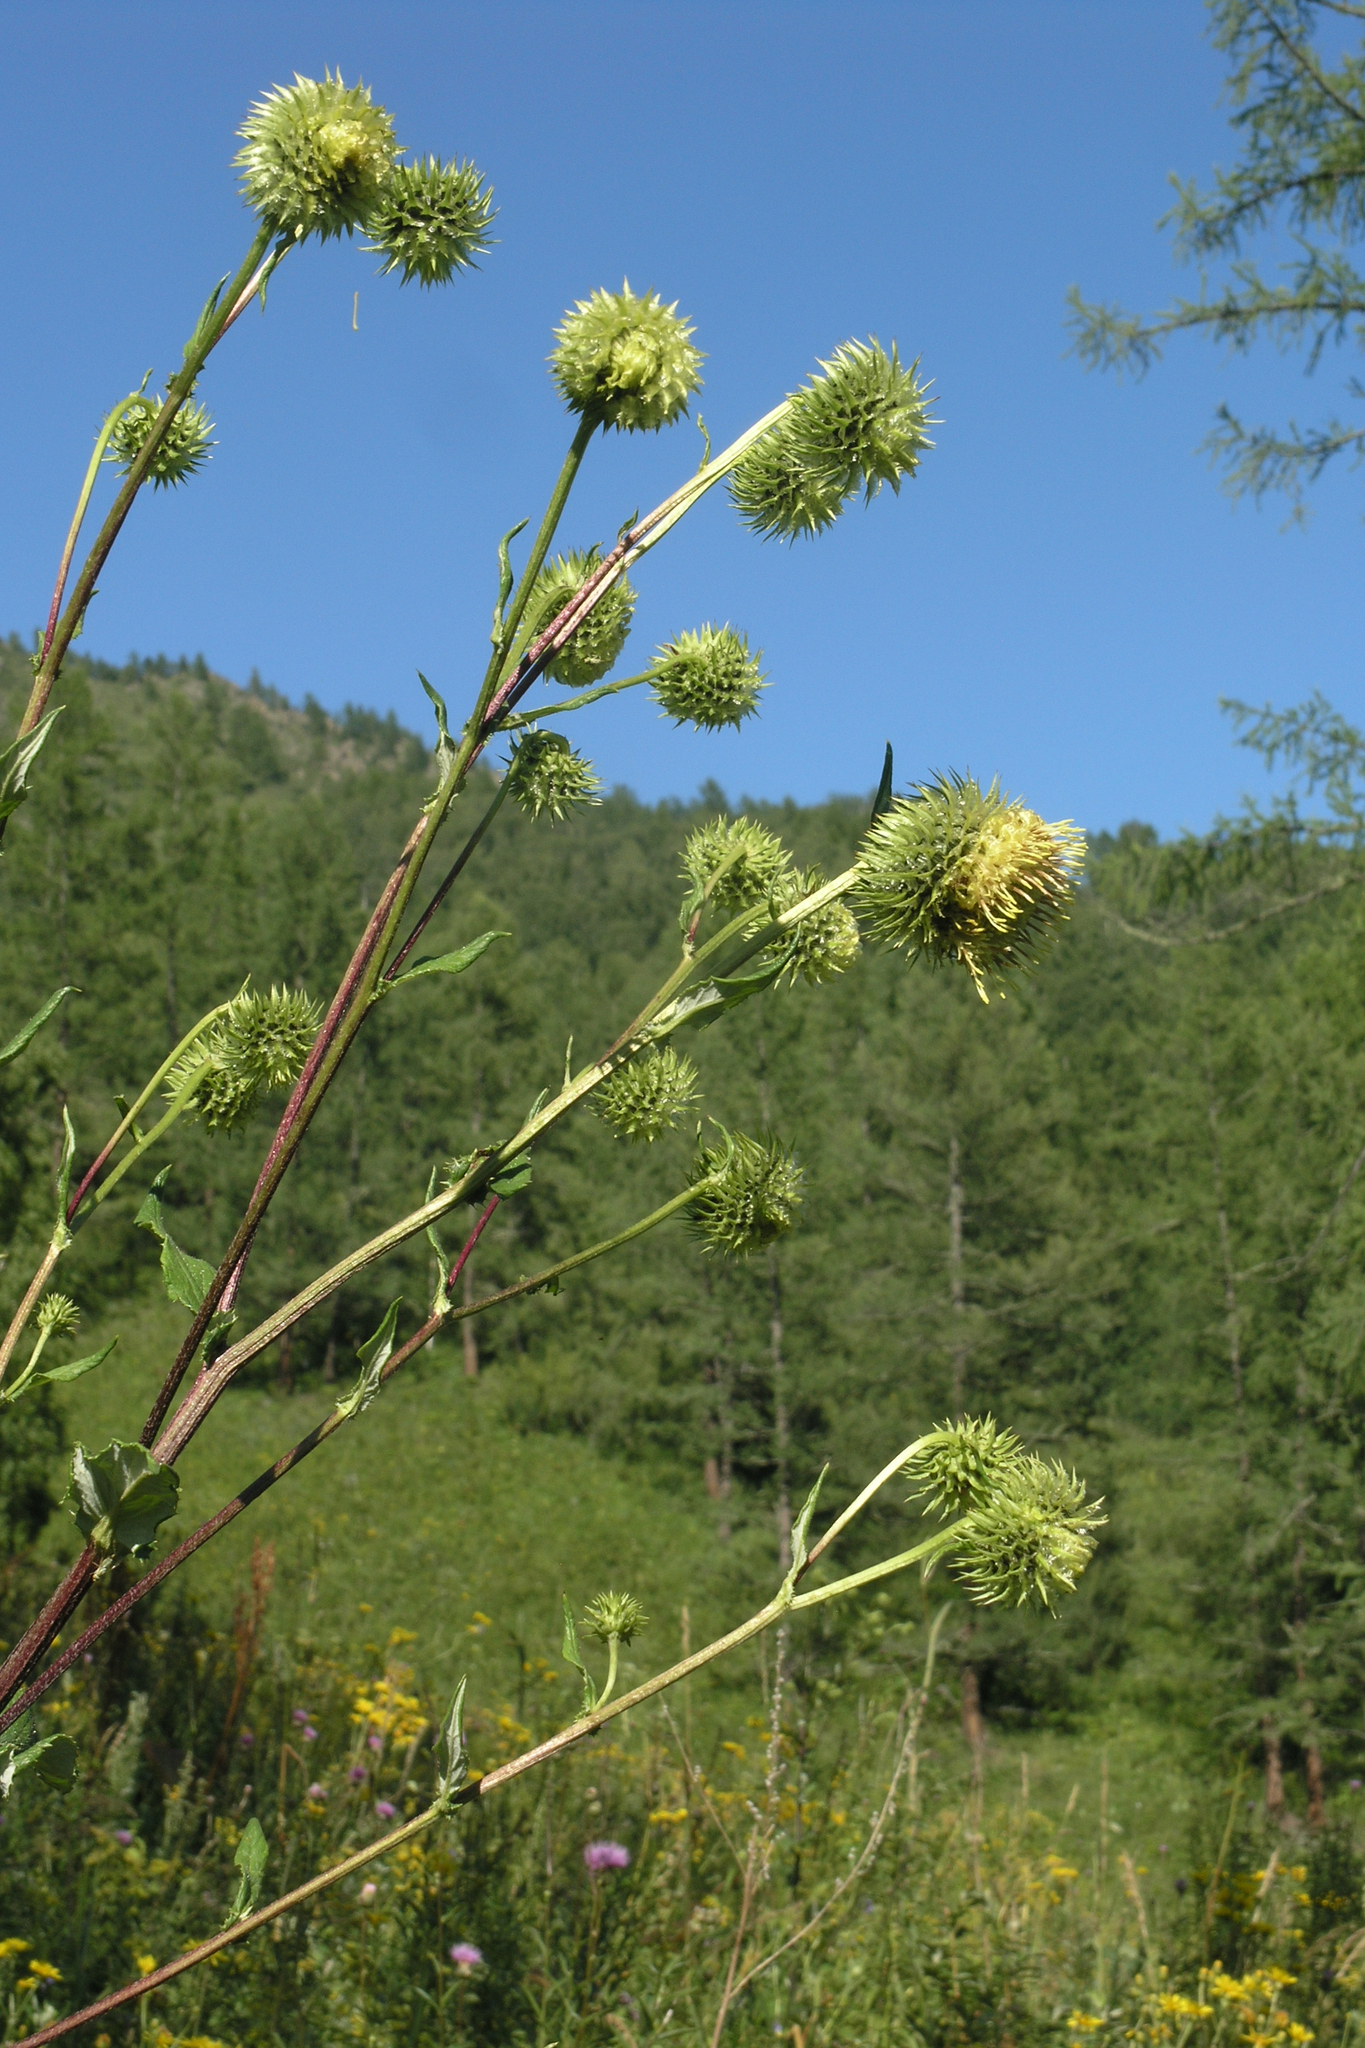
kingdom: Plantae
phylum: Tracheophyta
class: Magnoliopsida
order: Asterales
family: Asteraceae
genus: Alfredia
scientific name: Alfredia cernua
